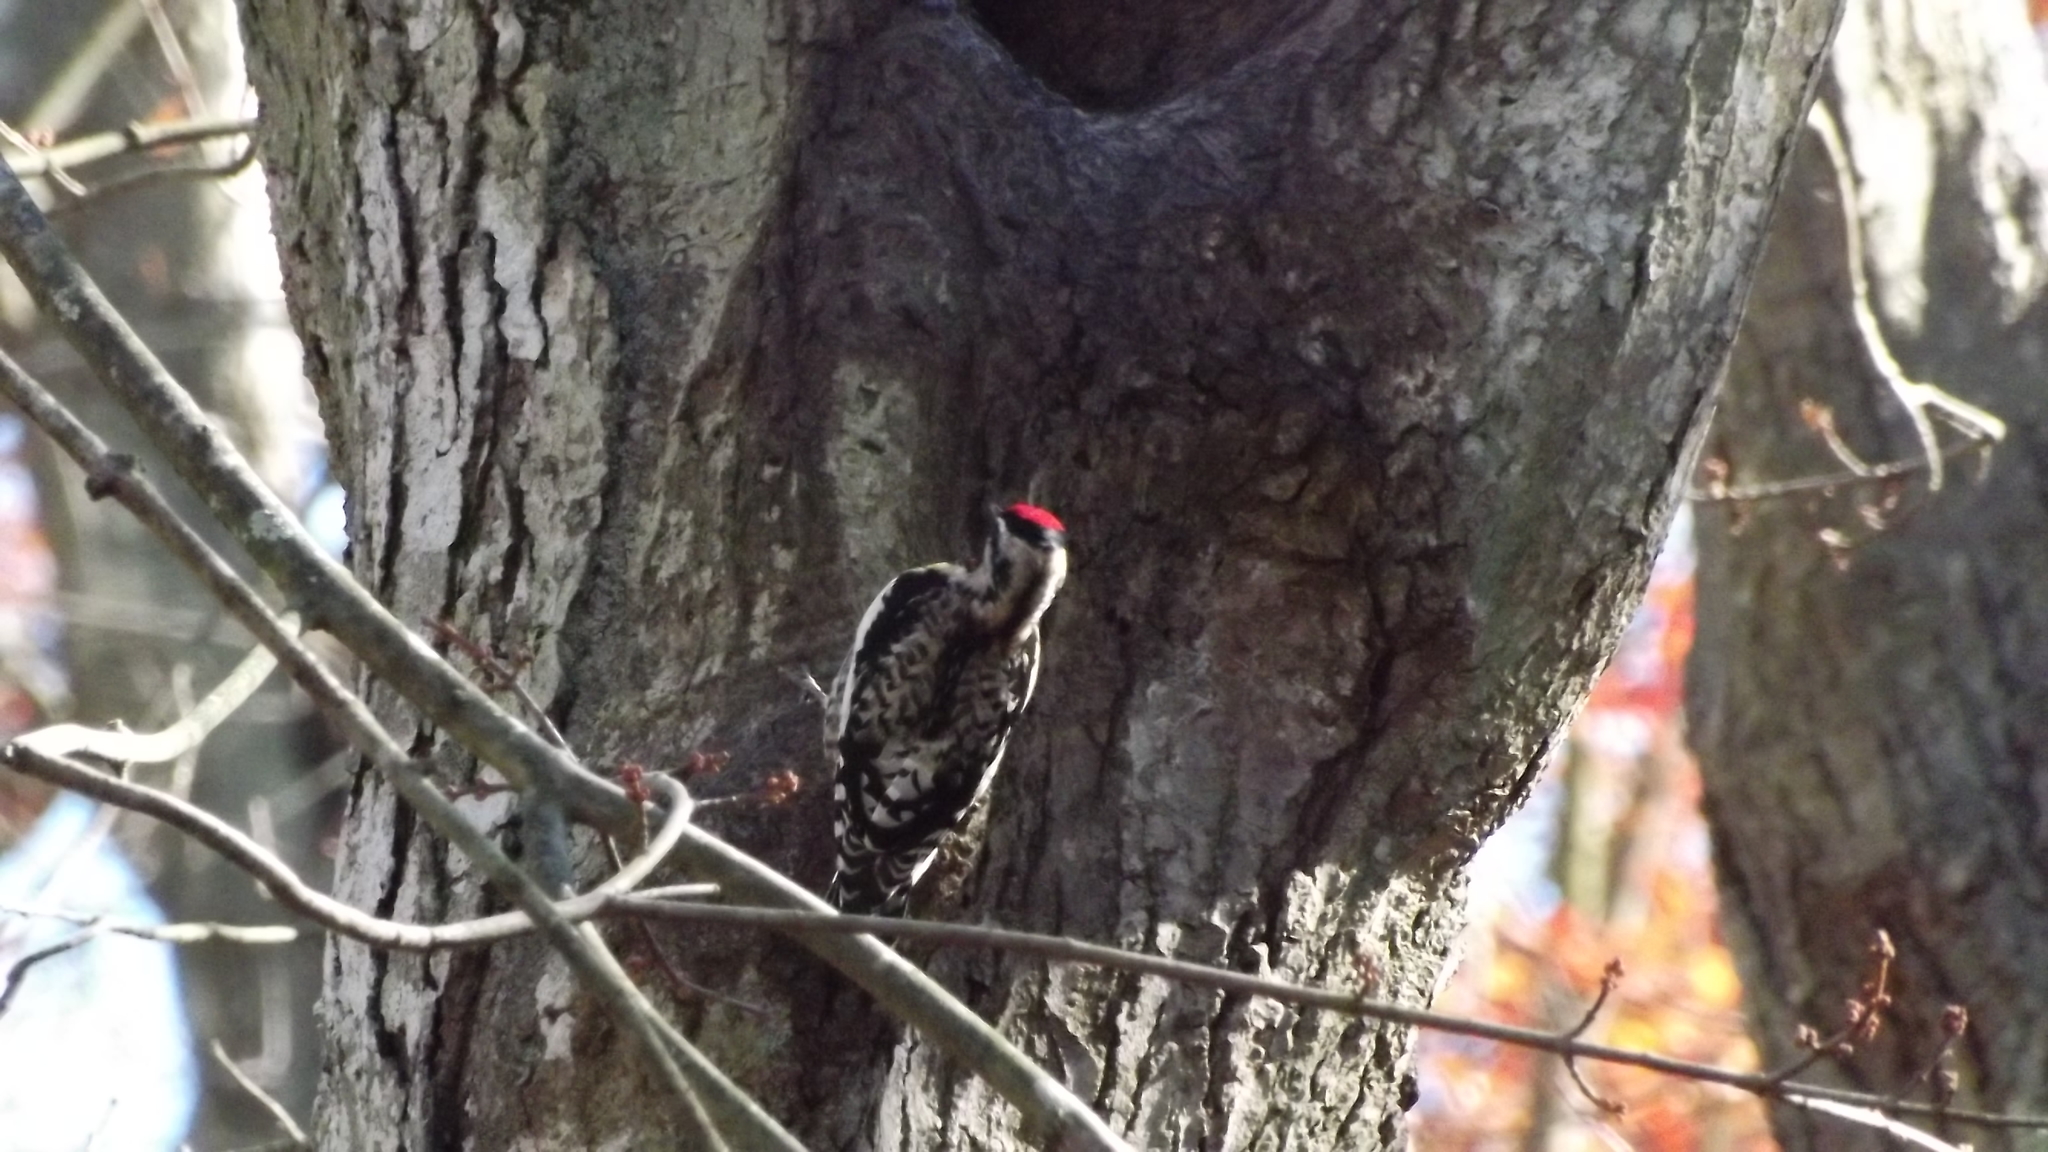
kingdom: Animalia
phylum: Chordata
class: Aves
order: Piciformes
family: Picidae
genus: Sphyrapicus
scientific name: Sphyrapicus varius
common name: Yellow-bellied sapsucker
